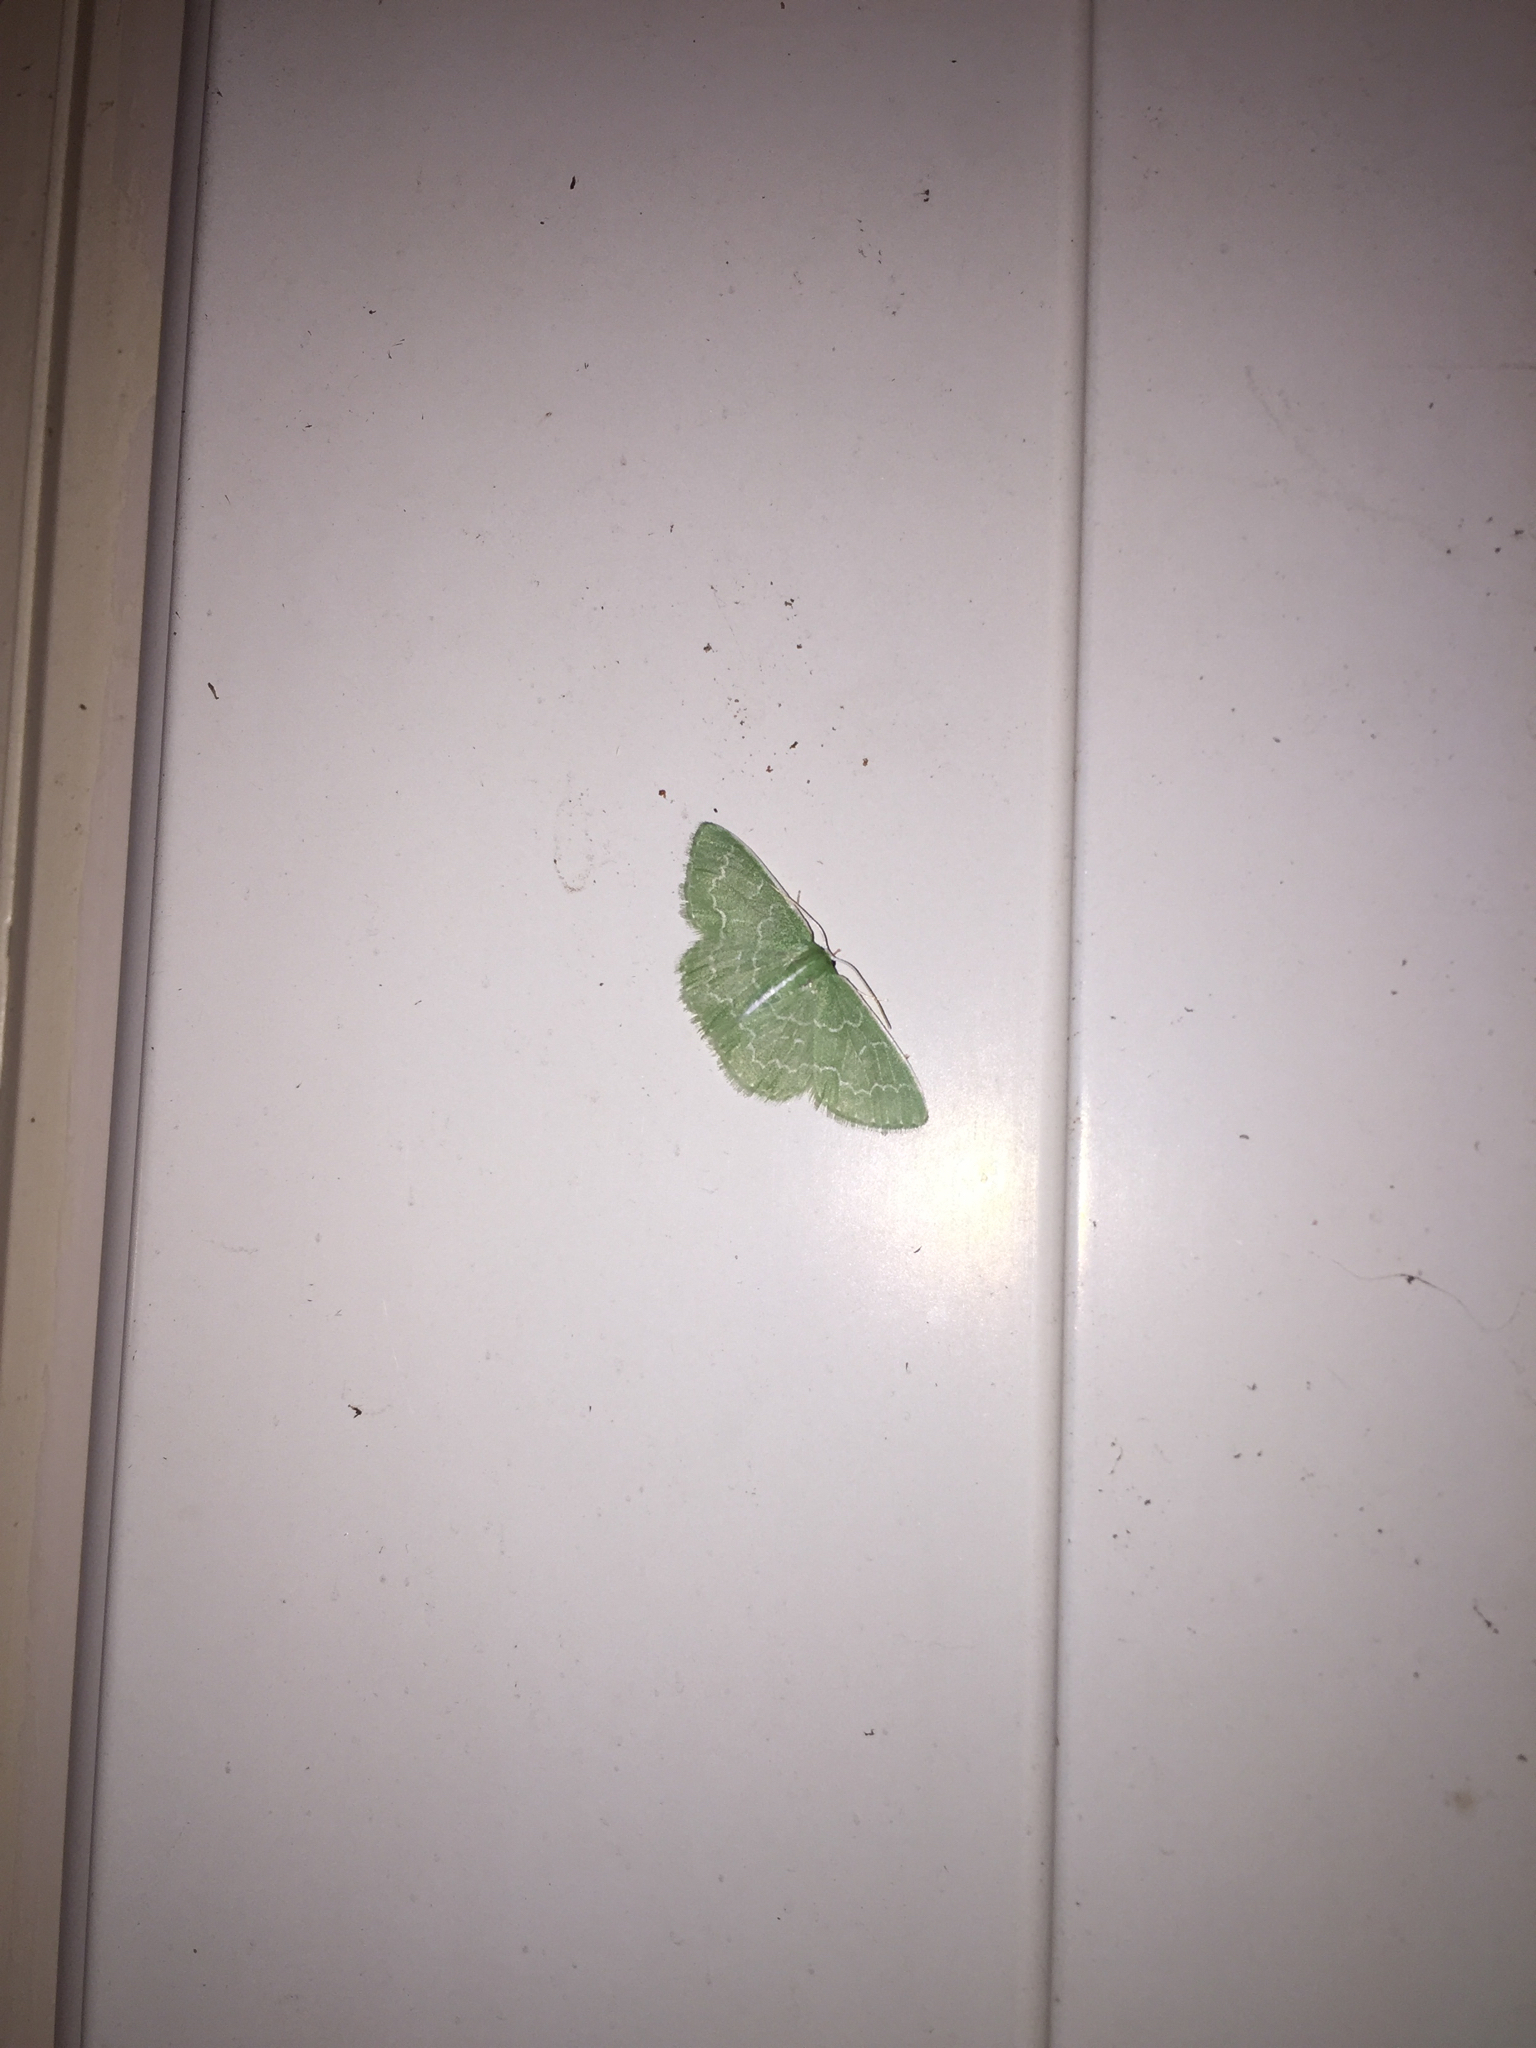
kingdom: Animalia
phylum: Arthropoda
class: Insecta
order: Lepidoptera
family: Geometridae
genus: Synchlora
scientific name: Synchlora frondaria
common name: Southern emerald
